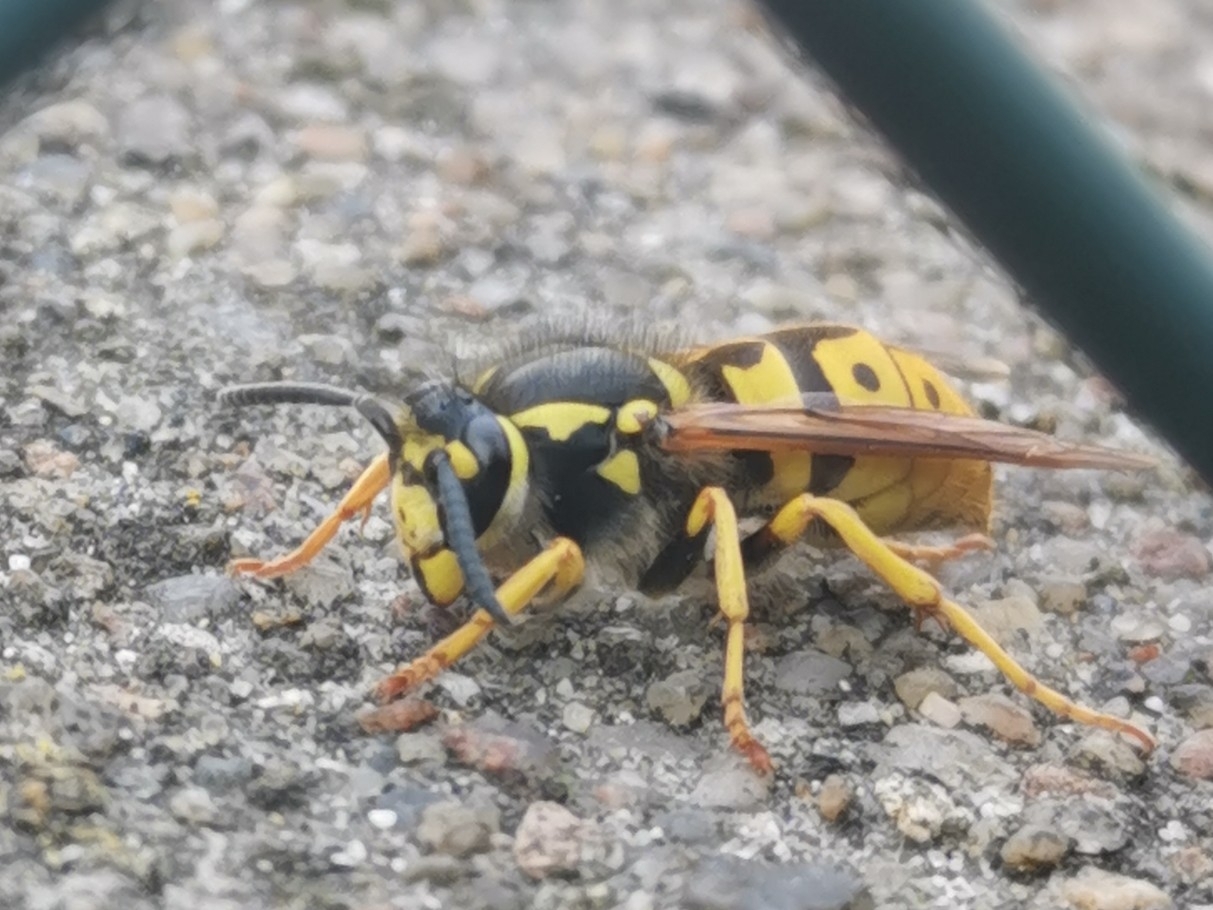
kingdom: Animalia
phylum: Arthropoda
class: Insecta
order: Hymenoptera
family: Vespidae
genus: Vespula
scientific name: Vespula germanica
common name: German wasp
